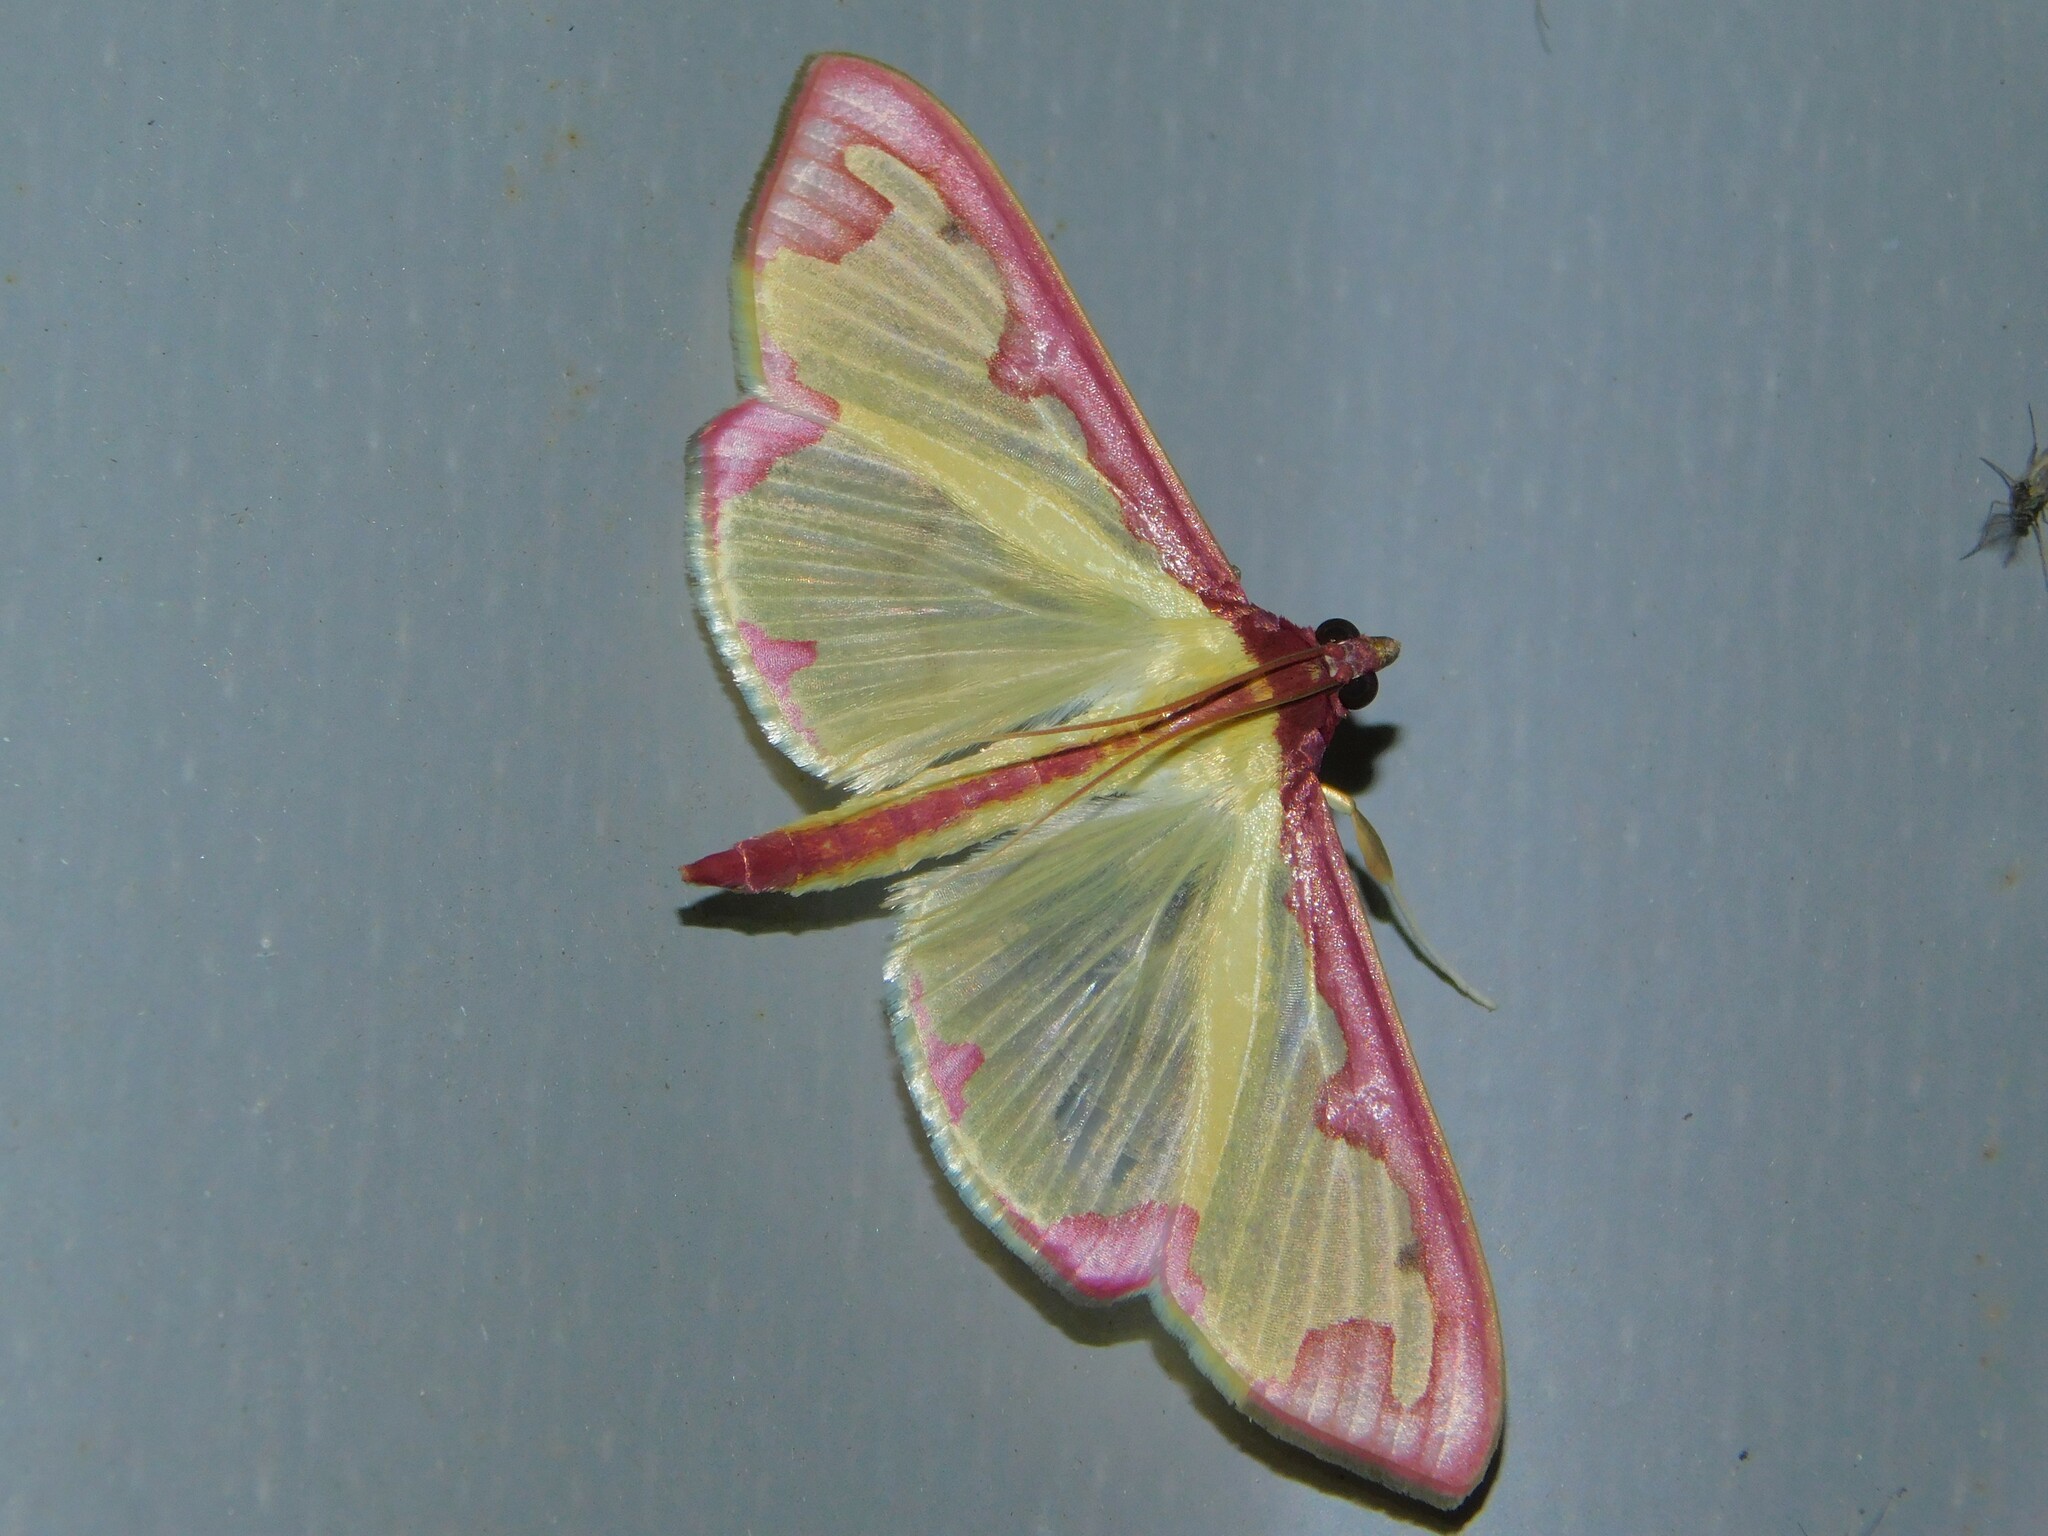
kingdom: Animalia
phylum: Arthropoda
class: Insecta
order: Lepidoptera
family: Crambidae
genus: Cadarena
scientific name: Cadarena pudoraria
